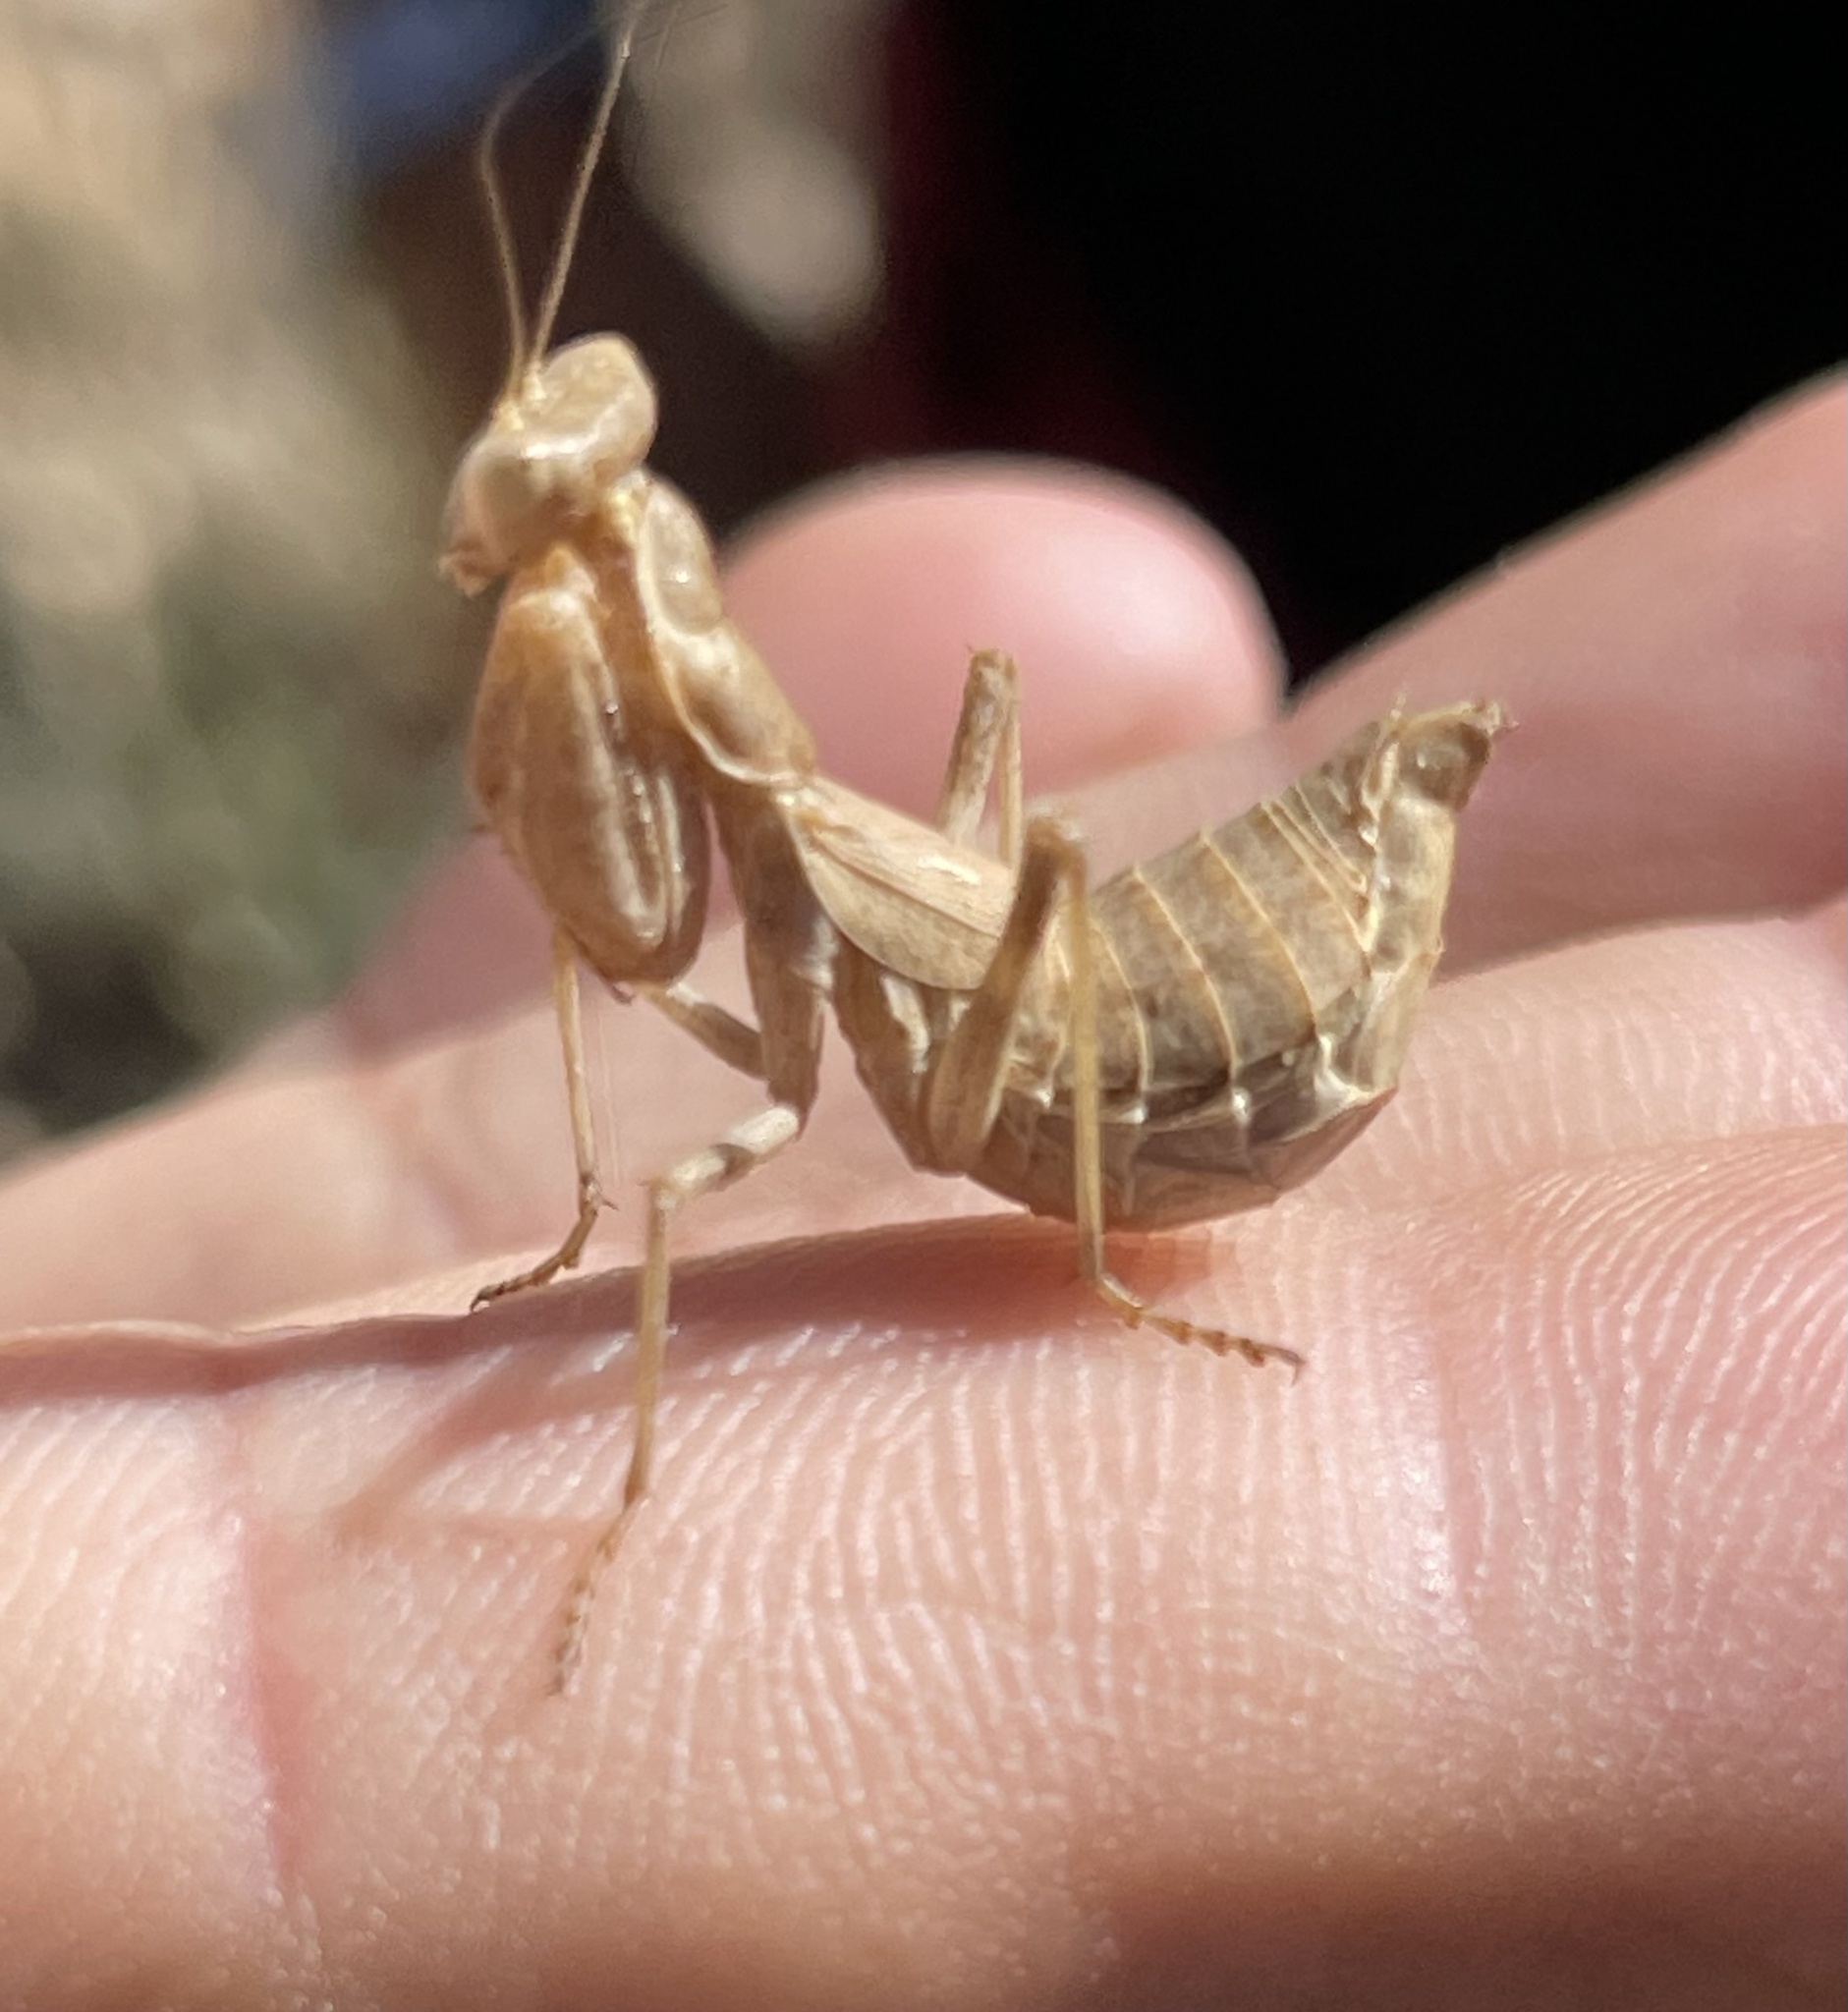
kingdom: Animalia
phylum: Arthropoda
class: Insecta
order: Mantodea
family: Amelidae
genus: Ameles
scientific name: Ameles spallanzania
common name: European dwarf mantis
